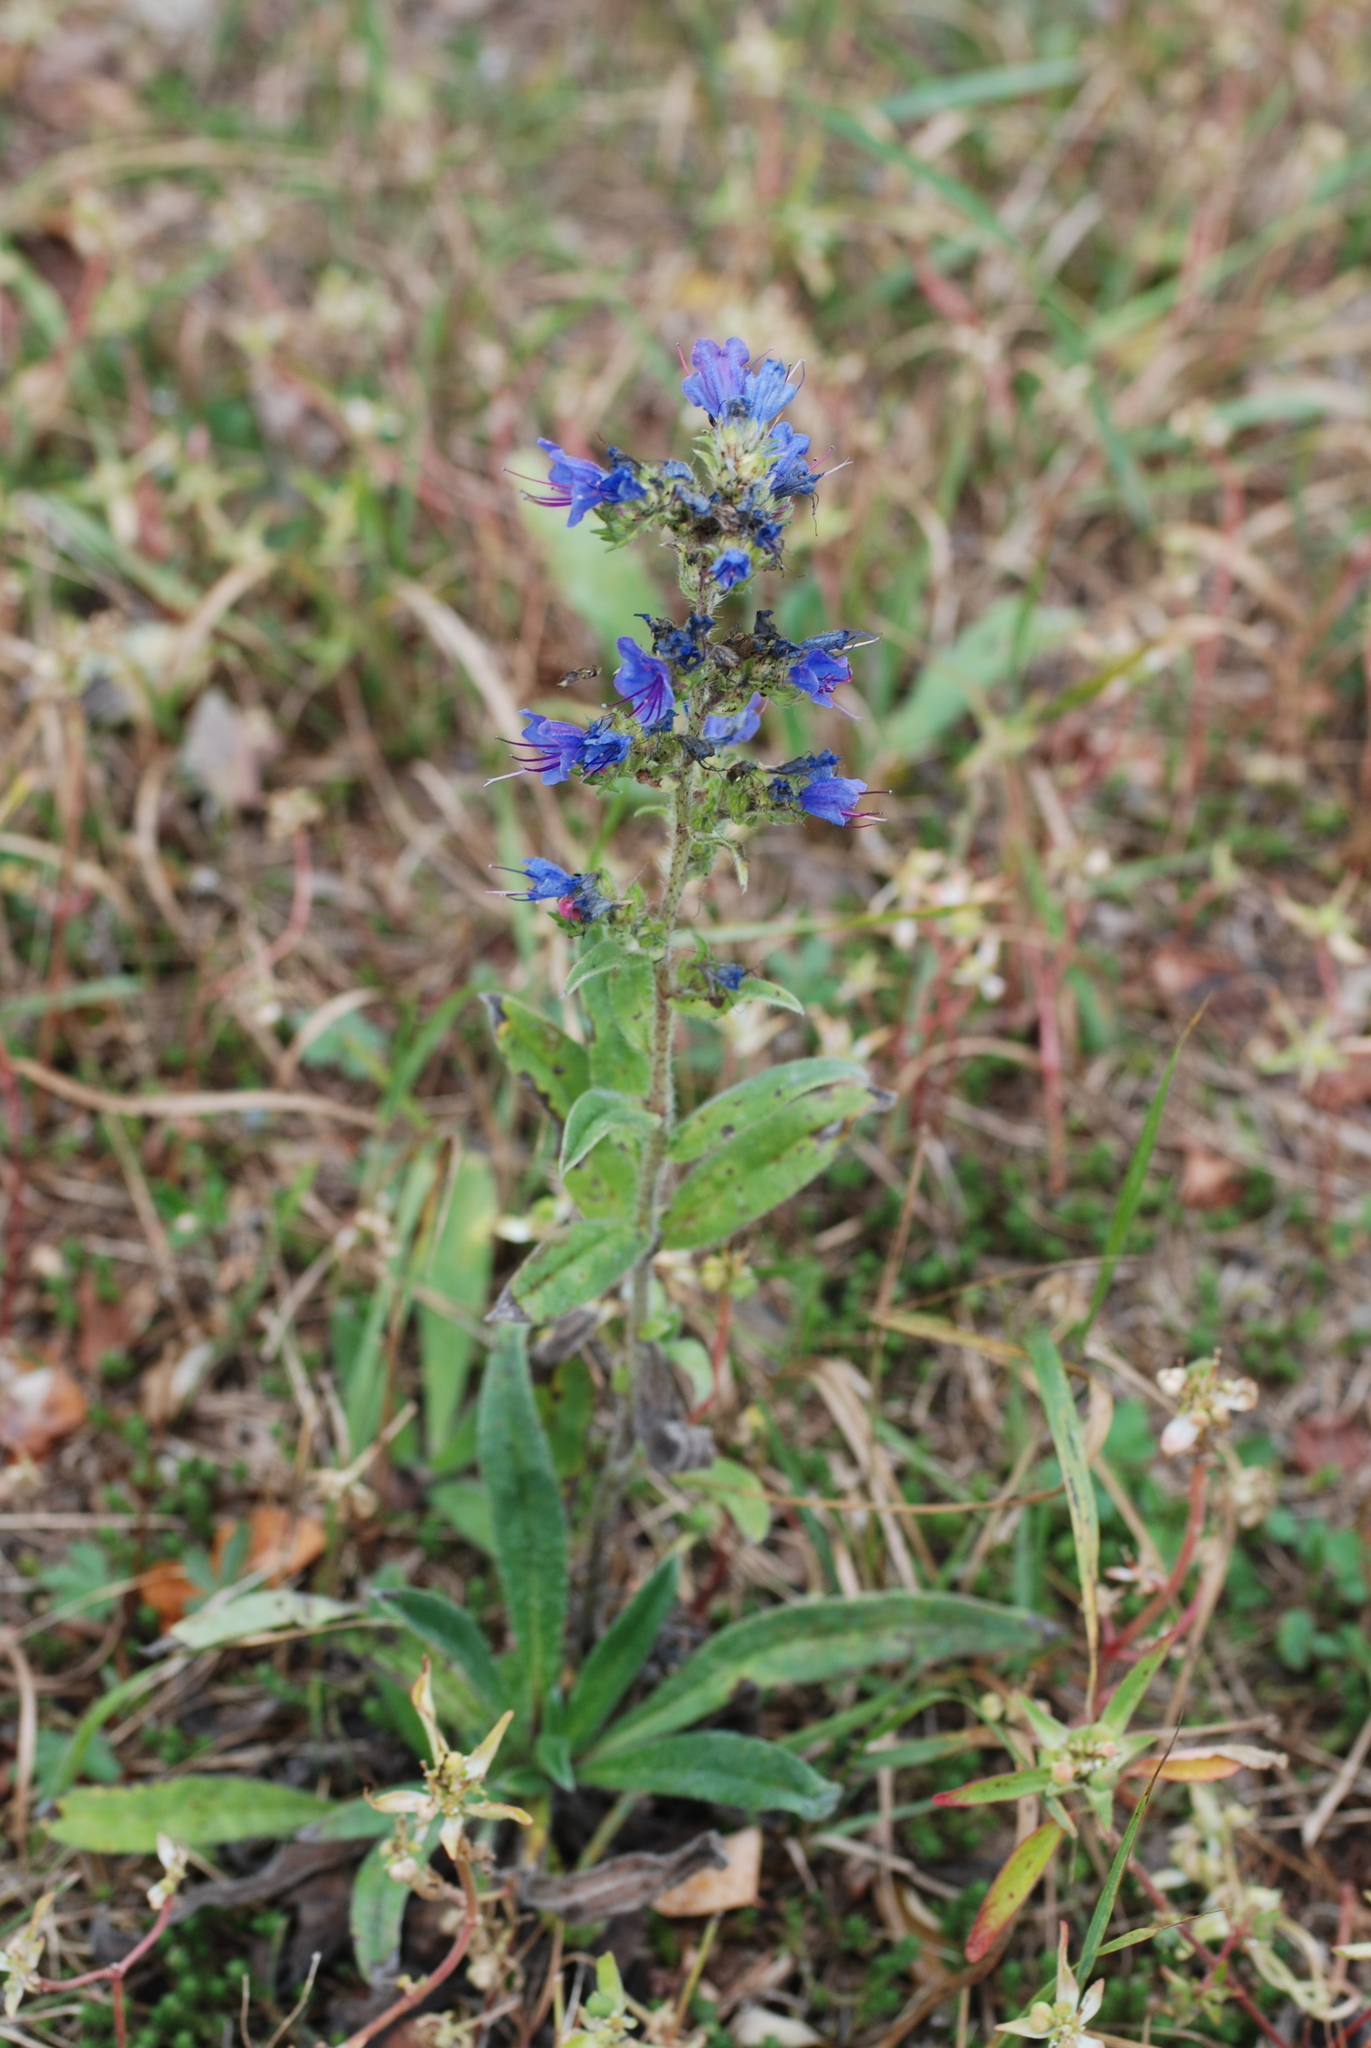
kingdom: Plantae
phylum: Tracheophyta
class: Magnoliopsida
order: Boraginales
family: Boraginaceae
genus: Echium
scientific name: Echium vulgare
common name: Common viper's bugloss
